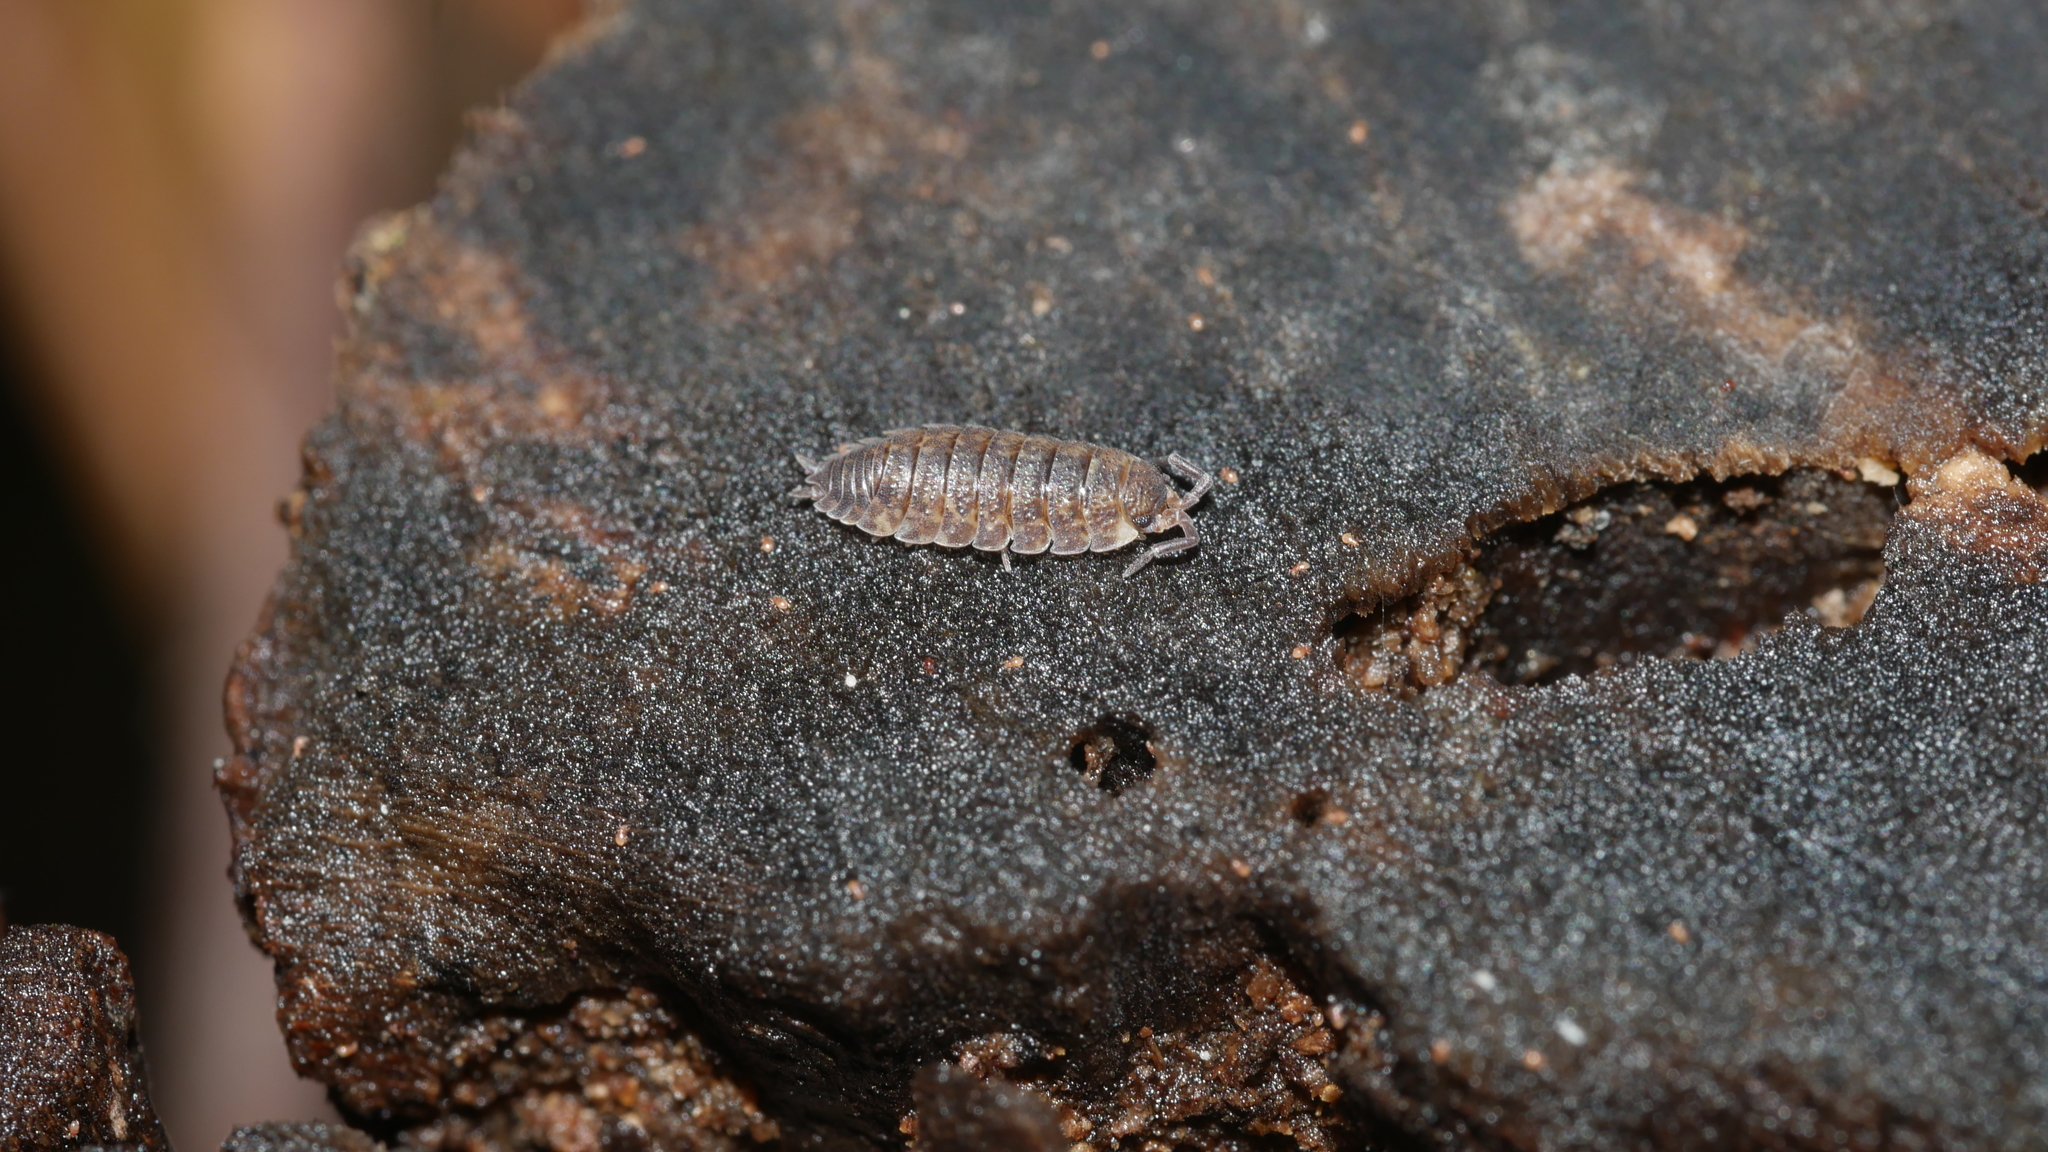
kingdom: Animalia
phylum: Arthropoda
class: Malacostraca
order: Isopoda
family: Porcellionidae
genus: Porcellio
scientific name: Porcellio scaber
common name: Common rough woodlouse
